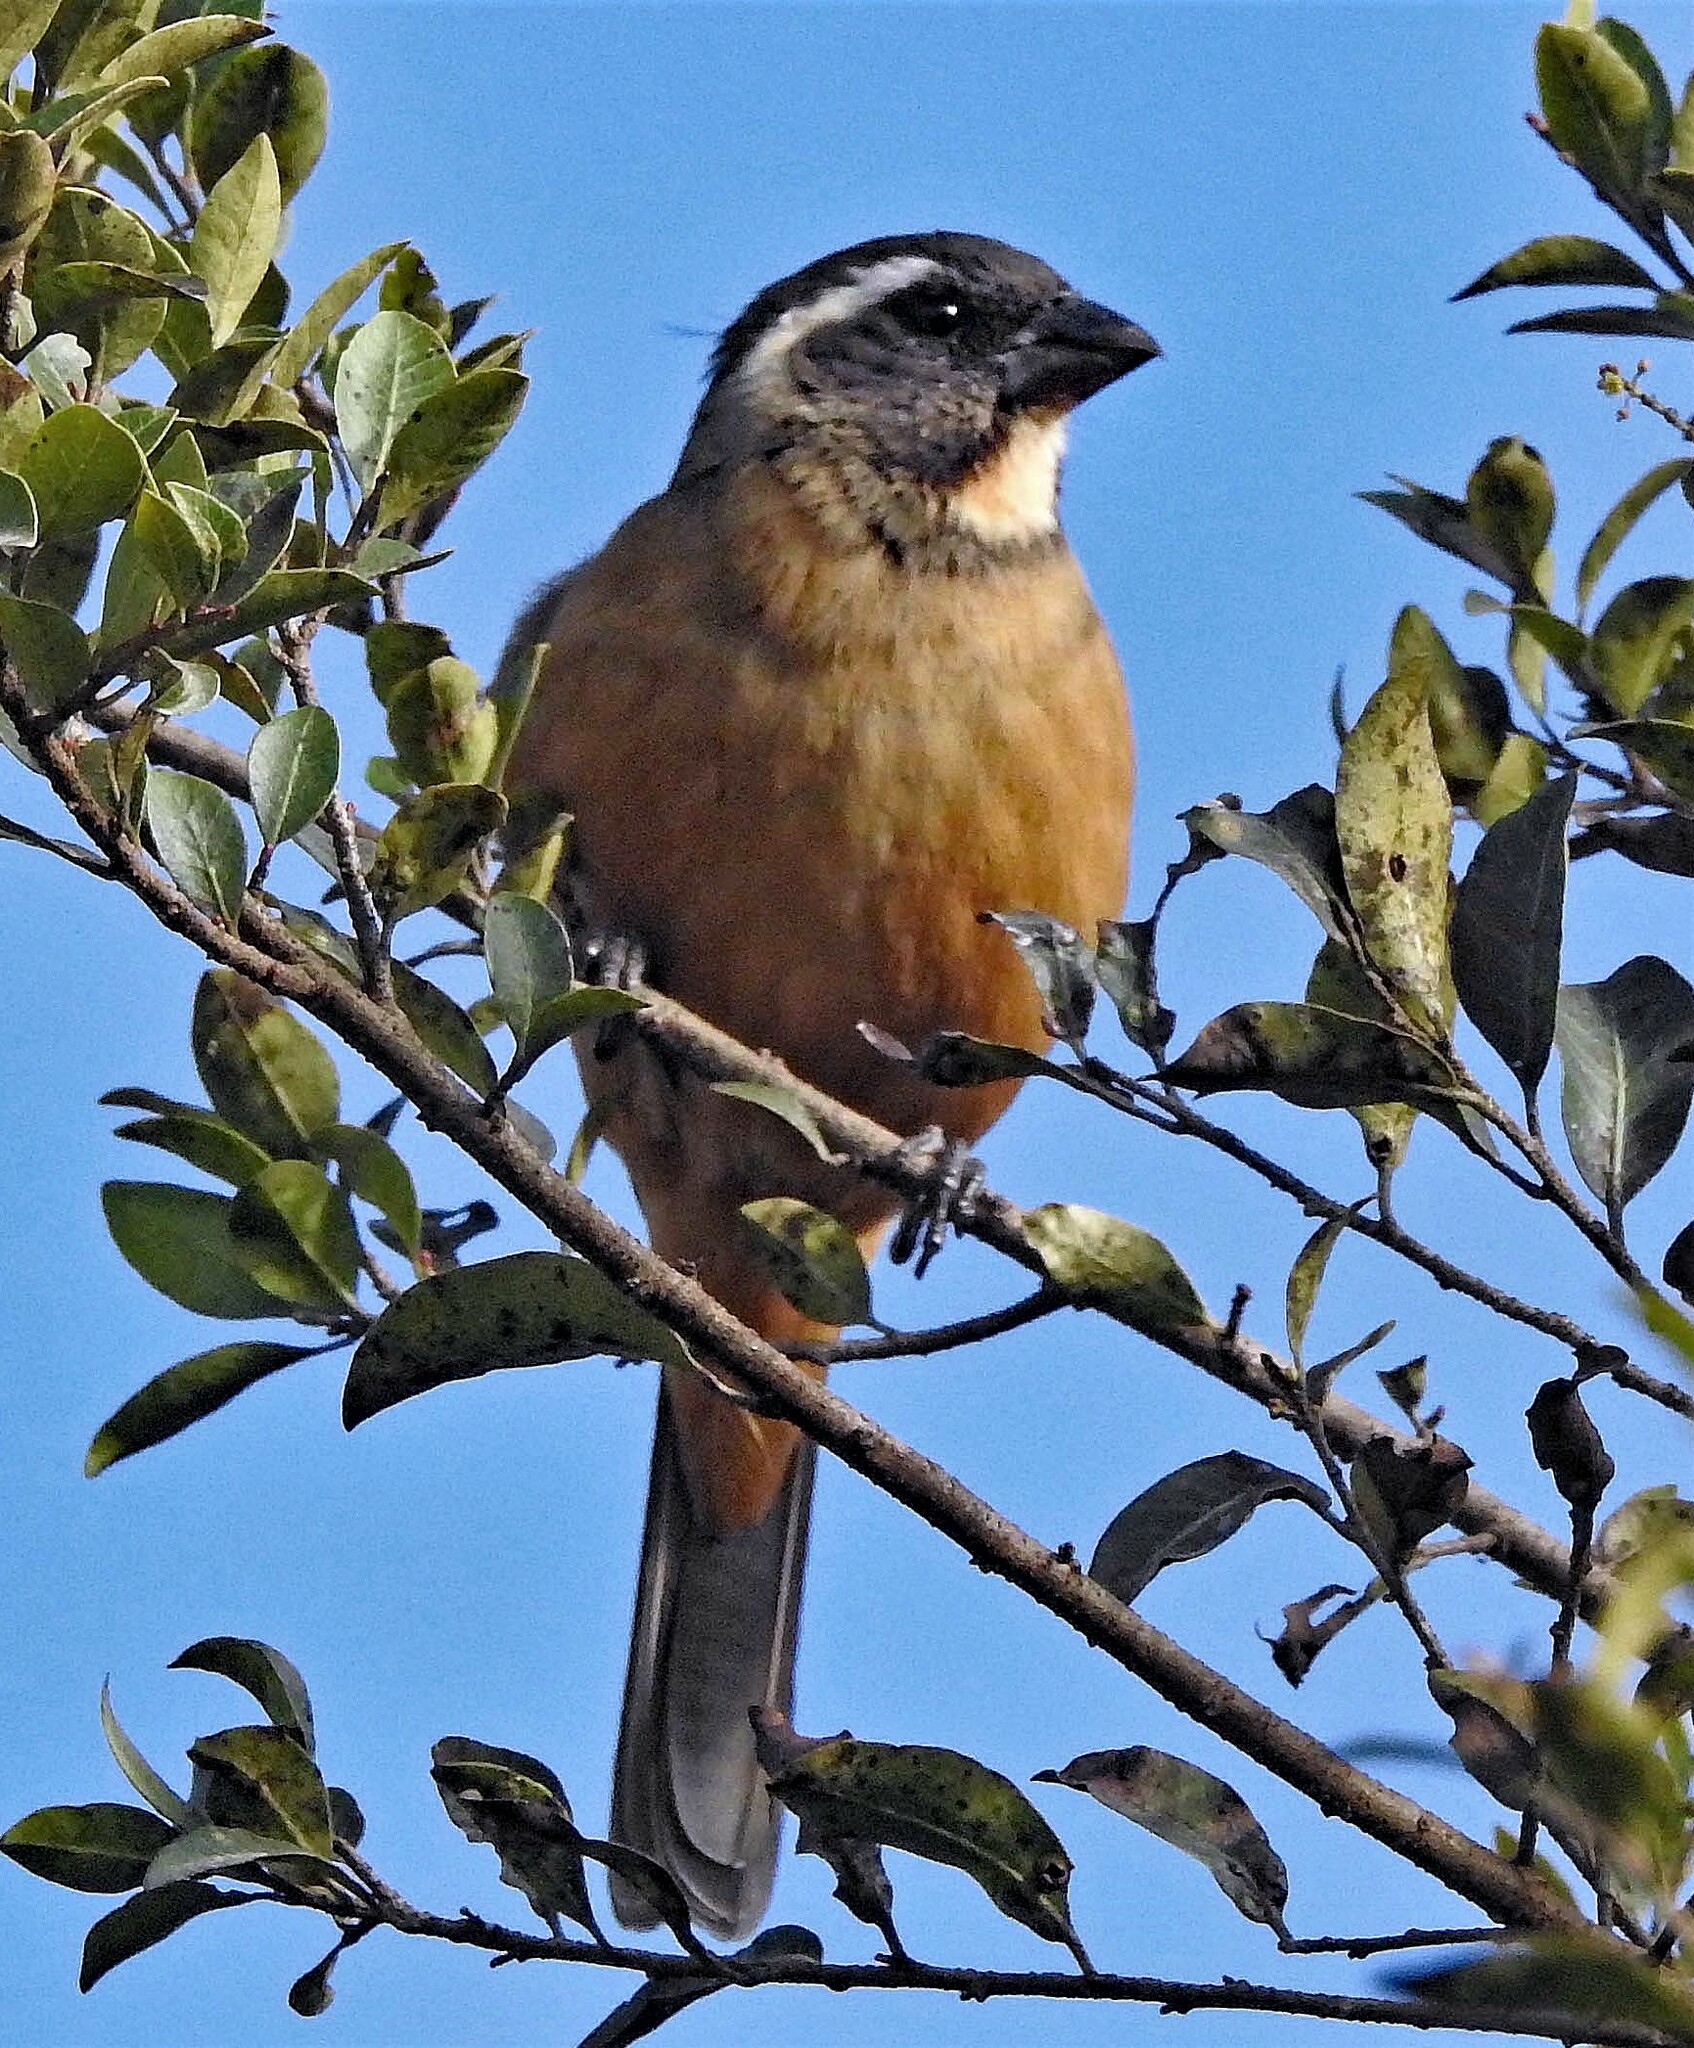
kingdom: Animalia
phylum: Chordata
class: Aves
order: Passeriformes
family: Thraupidae
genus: Saltator
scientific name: Saltator aurantiirostris
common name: Golden-billed saltator
